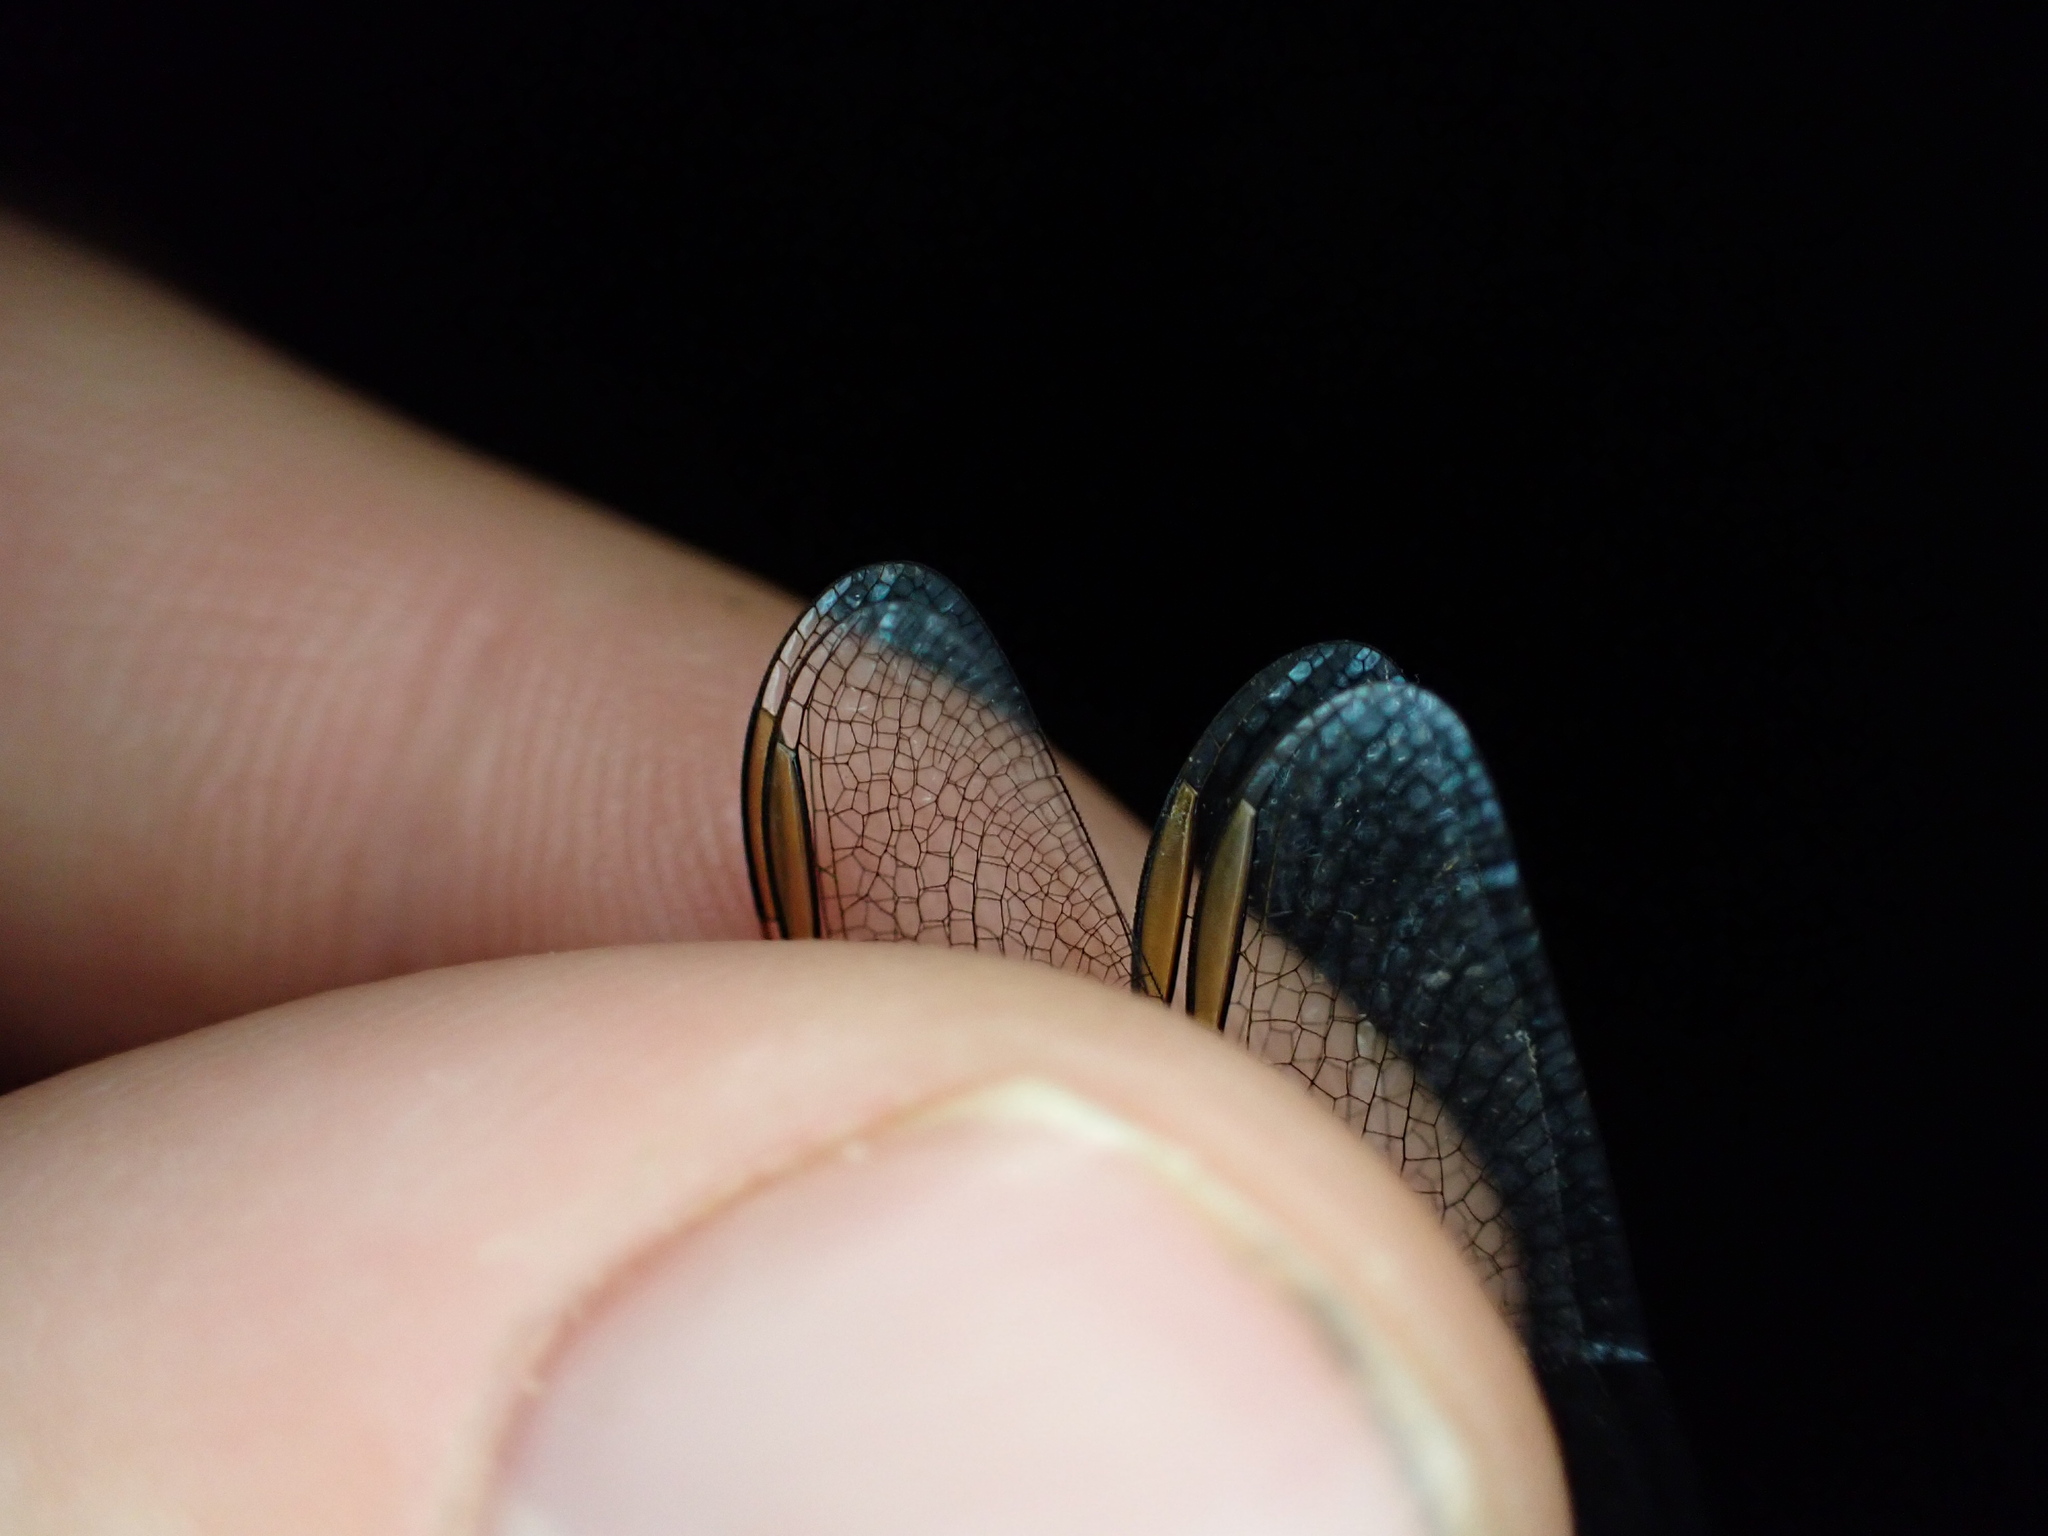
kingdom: Animalia
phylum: Arthropoda
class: Insecta
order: Odonata
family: Libellulidae
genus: Crocothemis
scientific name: Crocothemis erythraea
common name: Scarlet dragonfly
